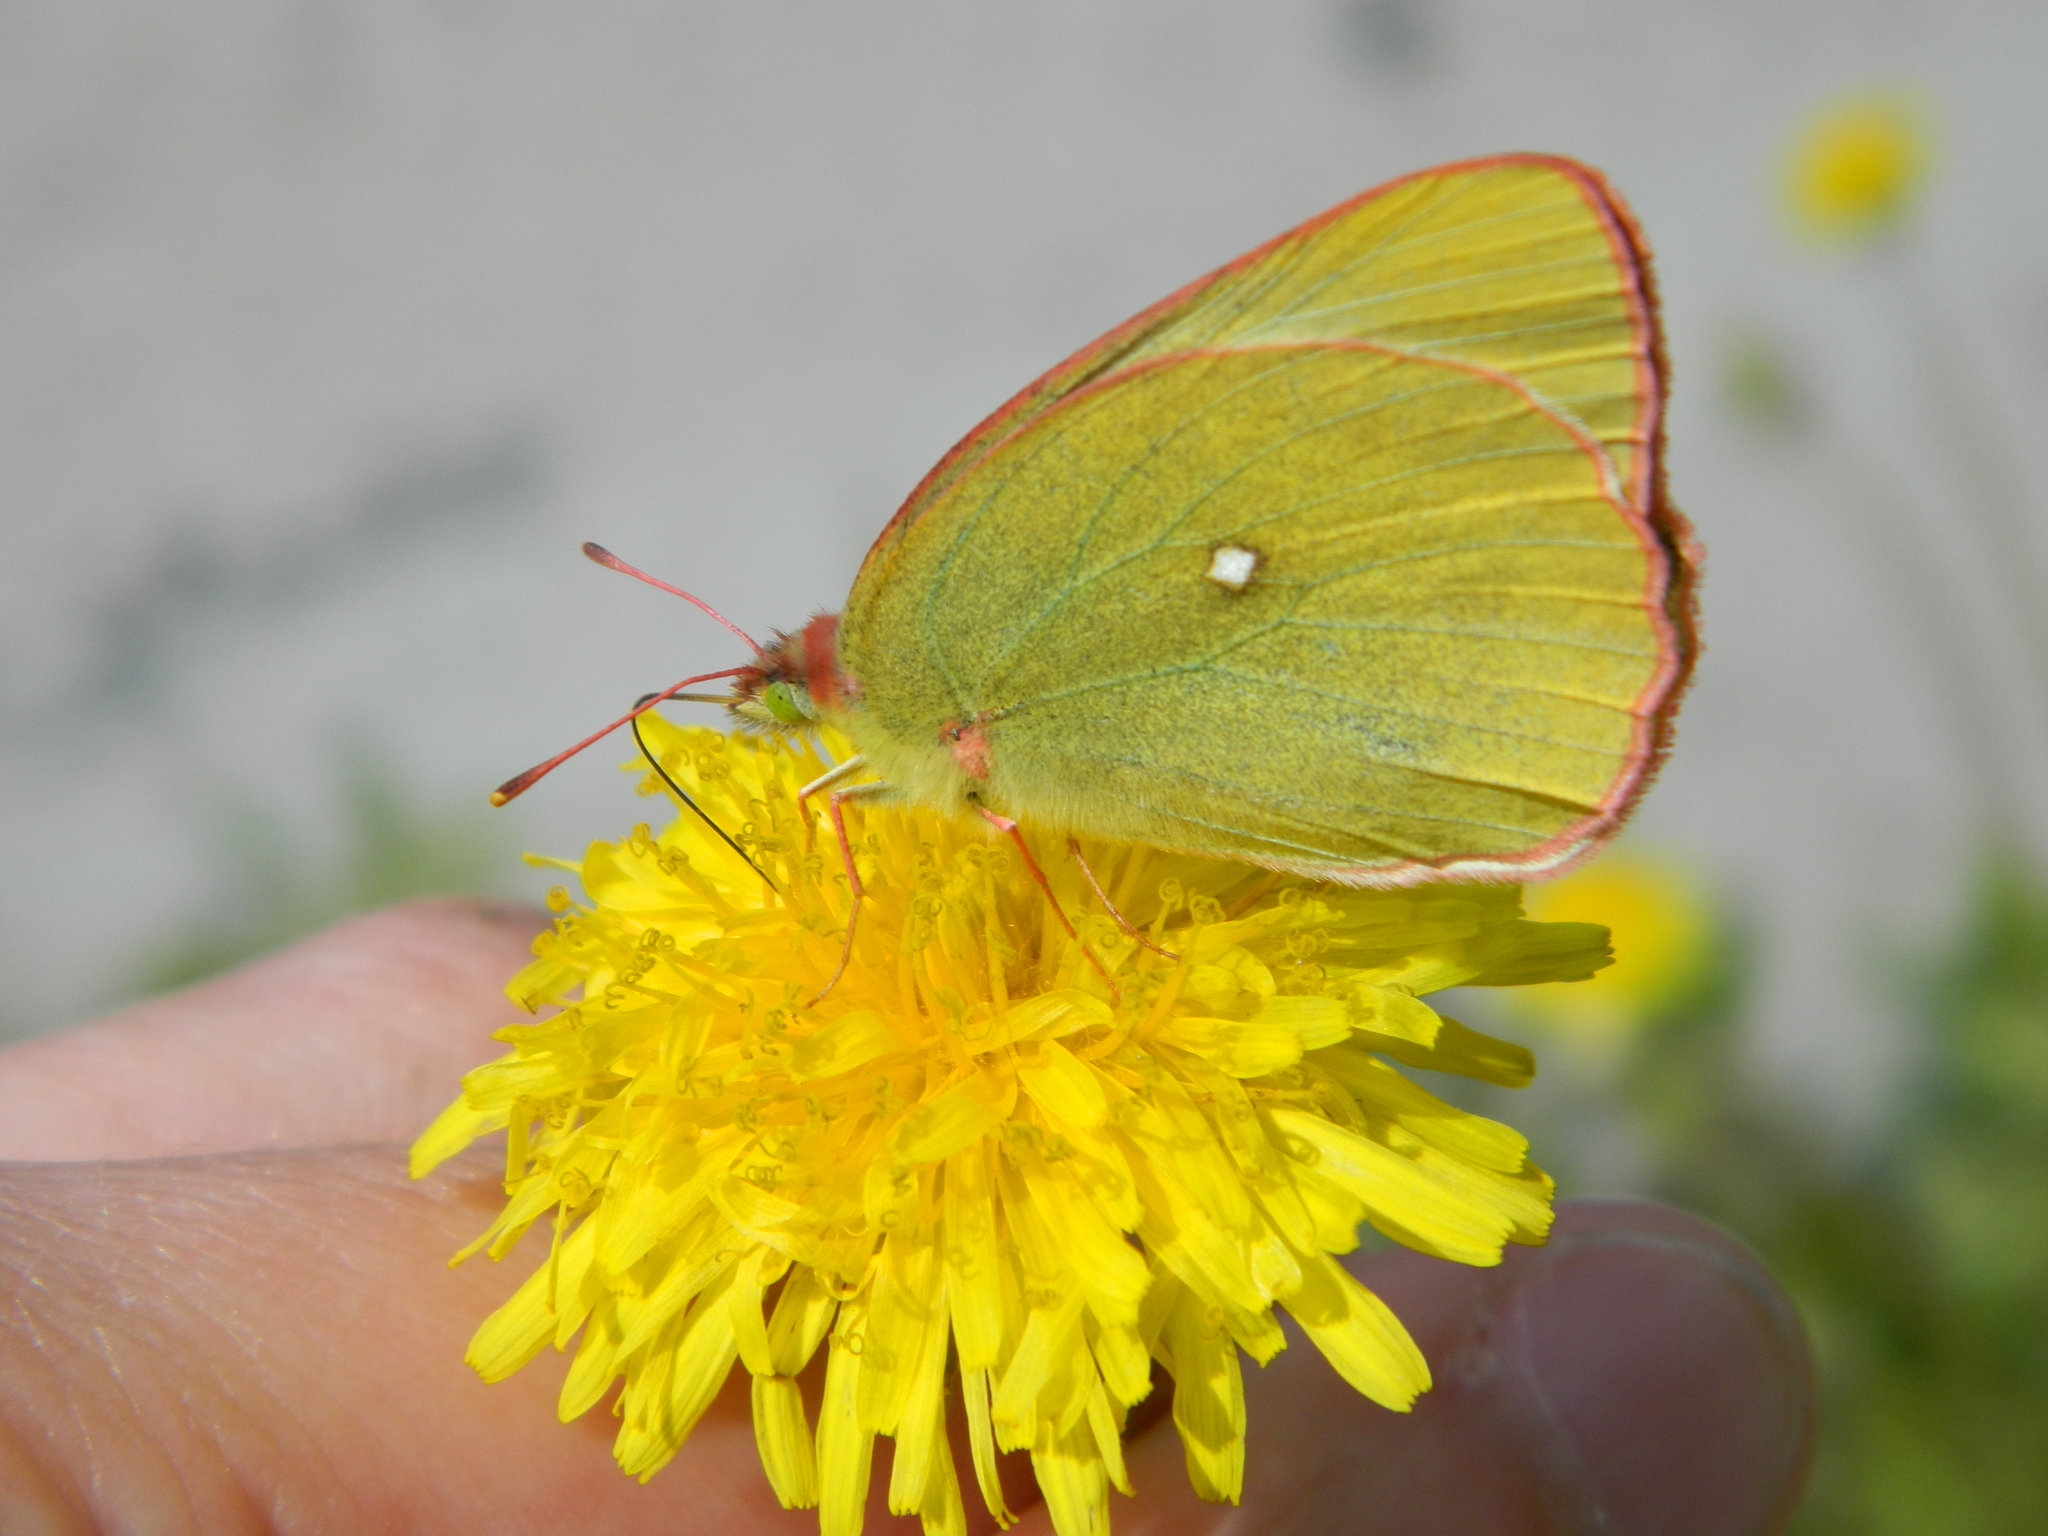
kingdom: Animalia
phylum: Arthropoda
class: Insecta
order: Lepidoptera
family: Pieridae
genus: Colias
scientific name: Colias palaeno
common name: Moorland clouded yellow
